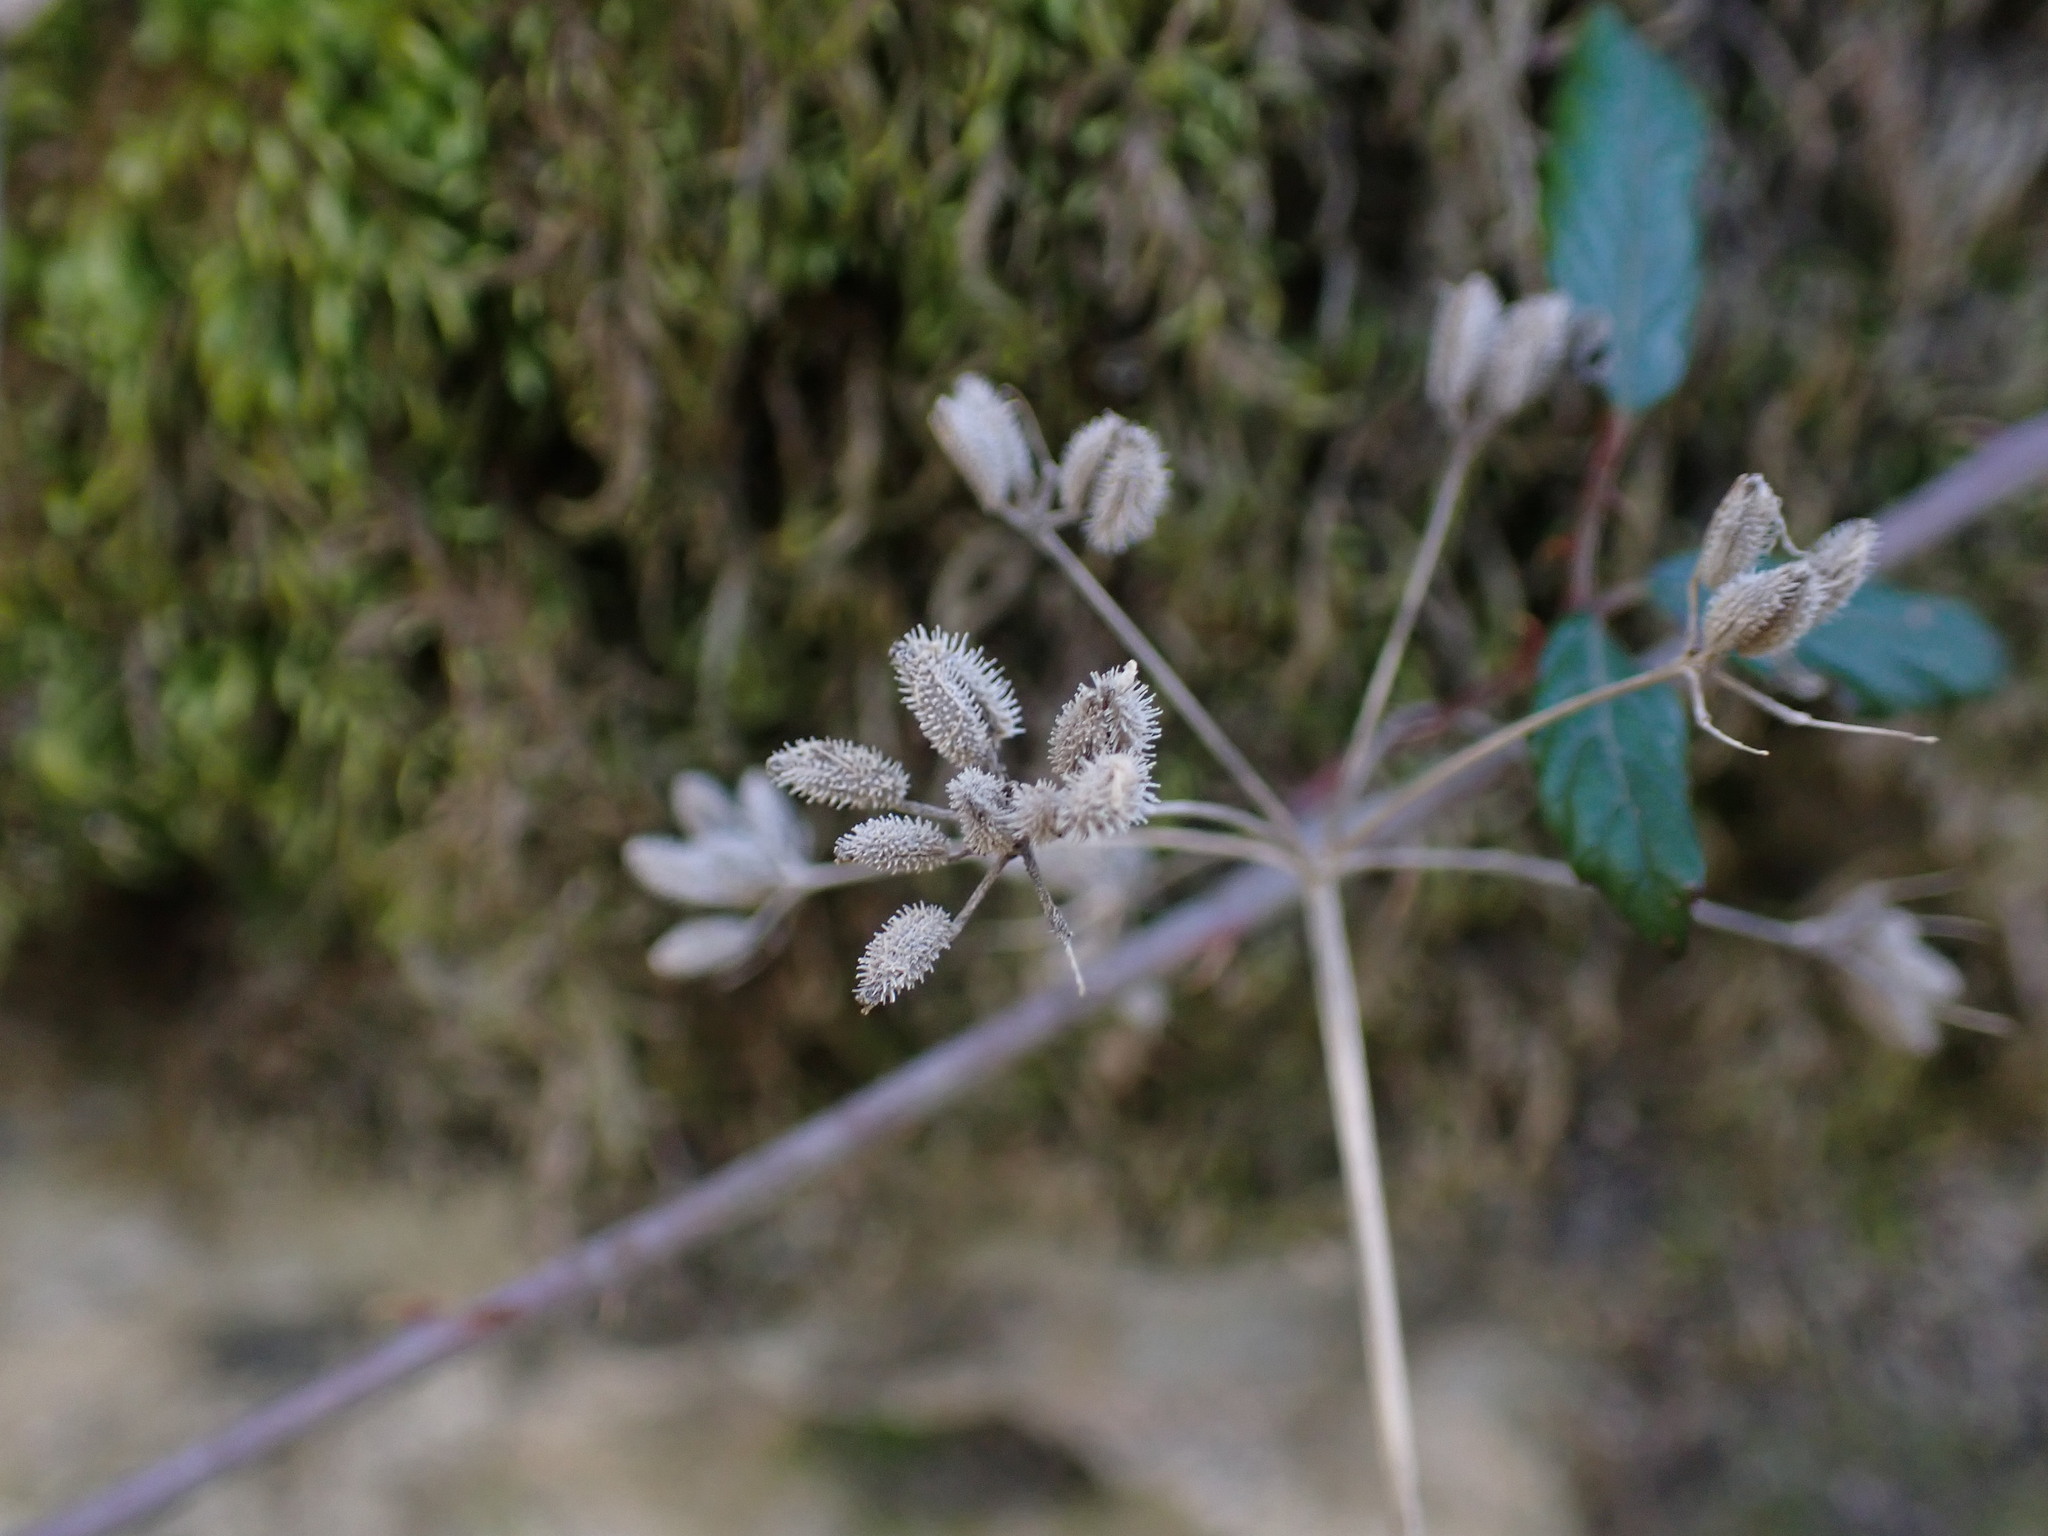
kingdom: Plantae
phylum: Tracheophyta
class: Magnoliopsida
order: Apiales
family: Apiaceae
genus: Torilis
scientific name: Torilis arvensis
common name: Spreading hedge-parsley
